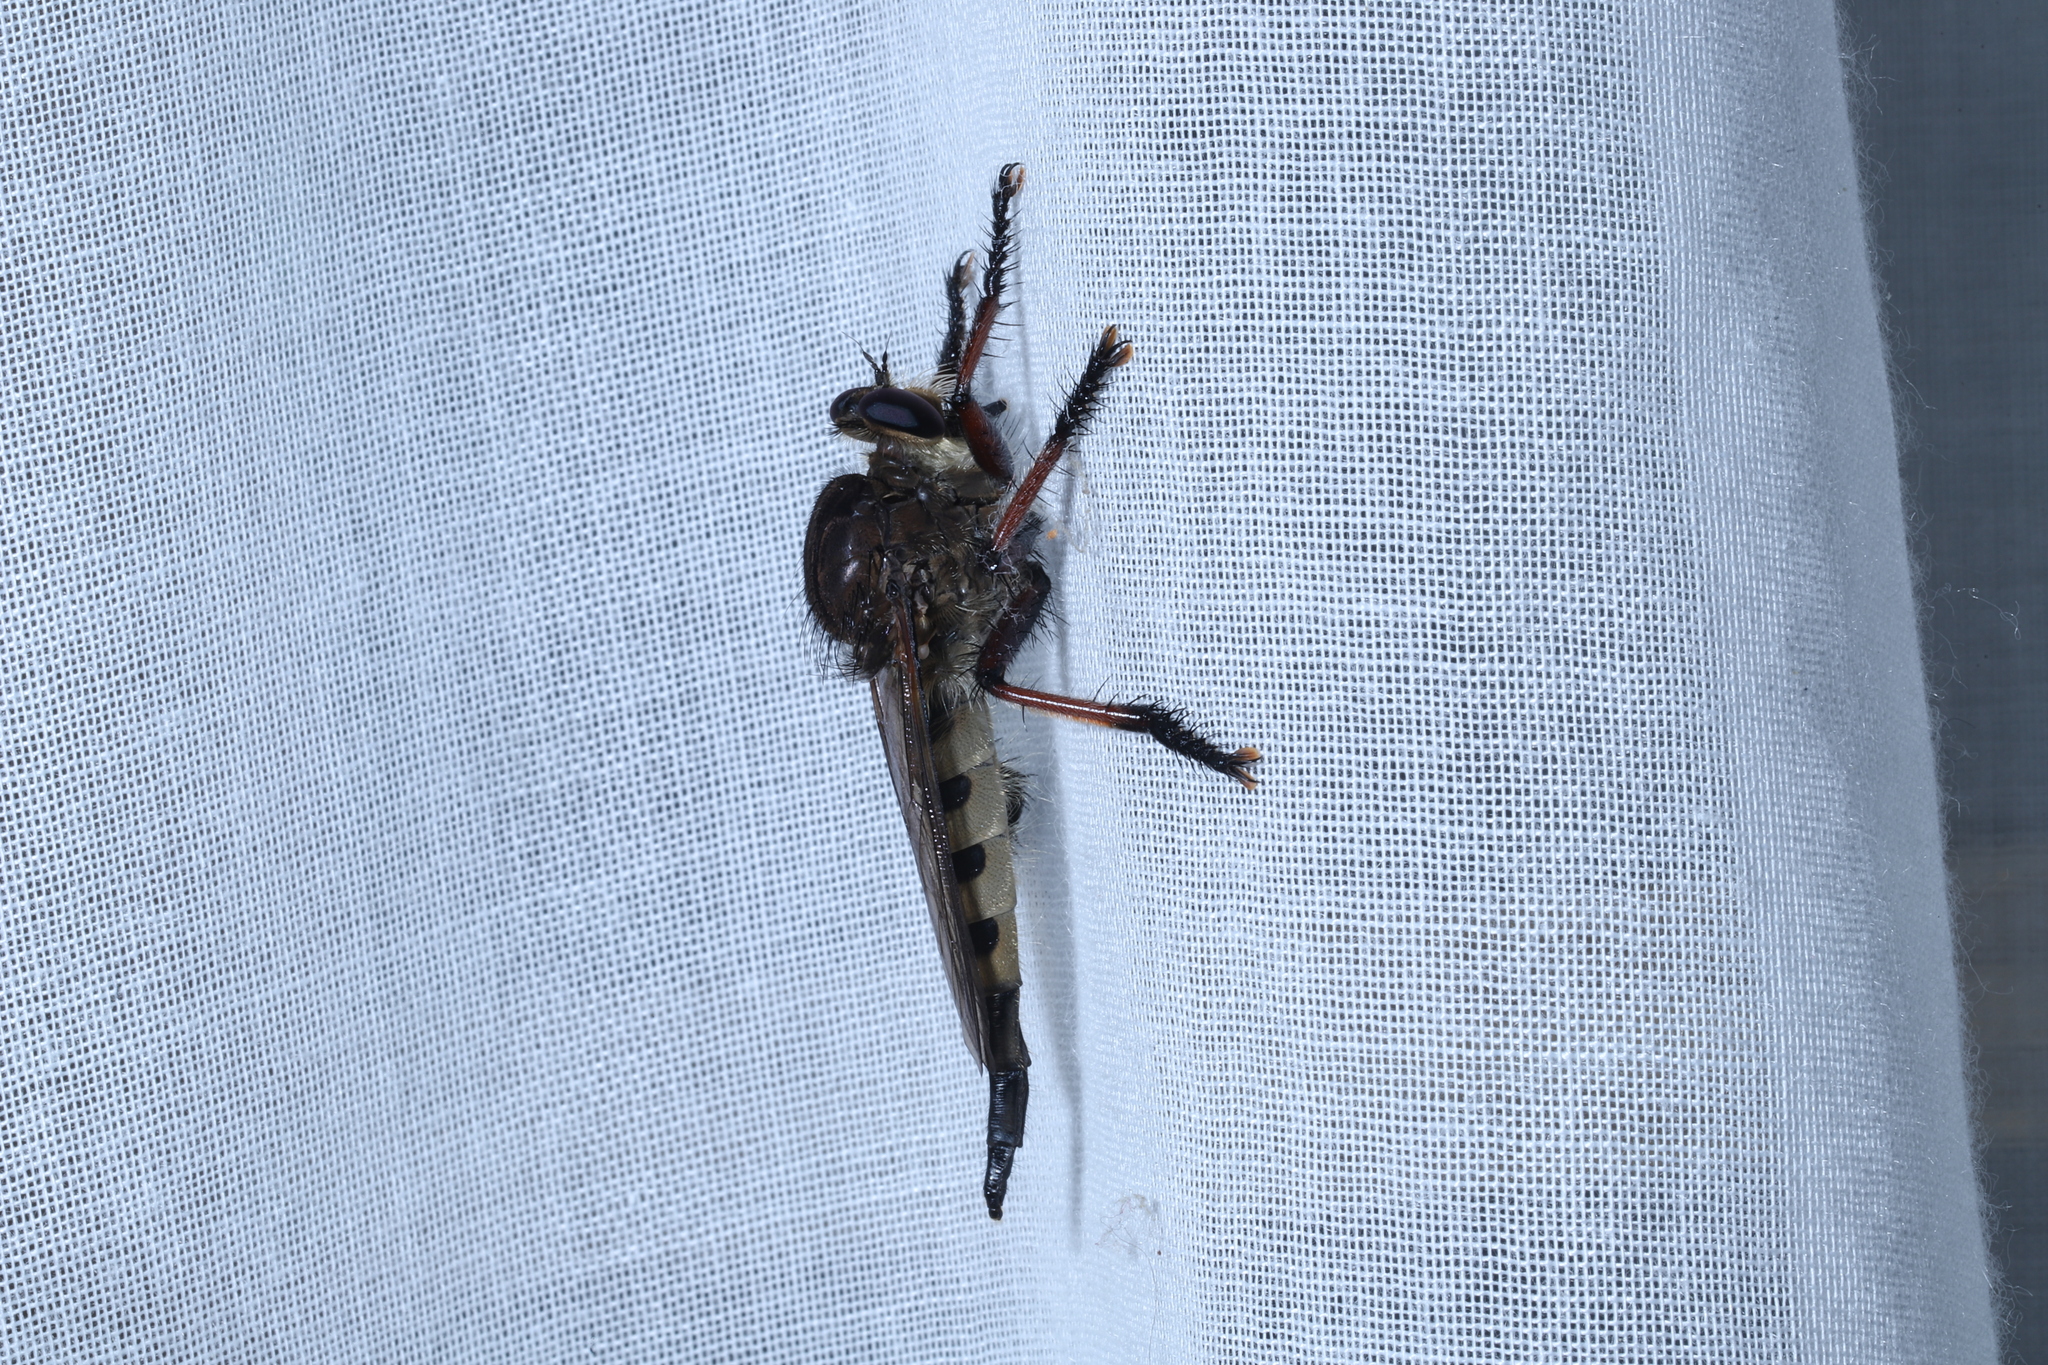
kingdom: Animalia
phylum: Arthropoda
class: Insecta
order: Diptera
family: Asilidae
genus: Promachus
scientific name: Promachus hinei
